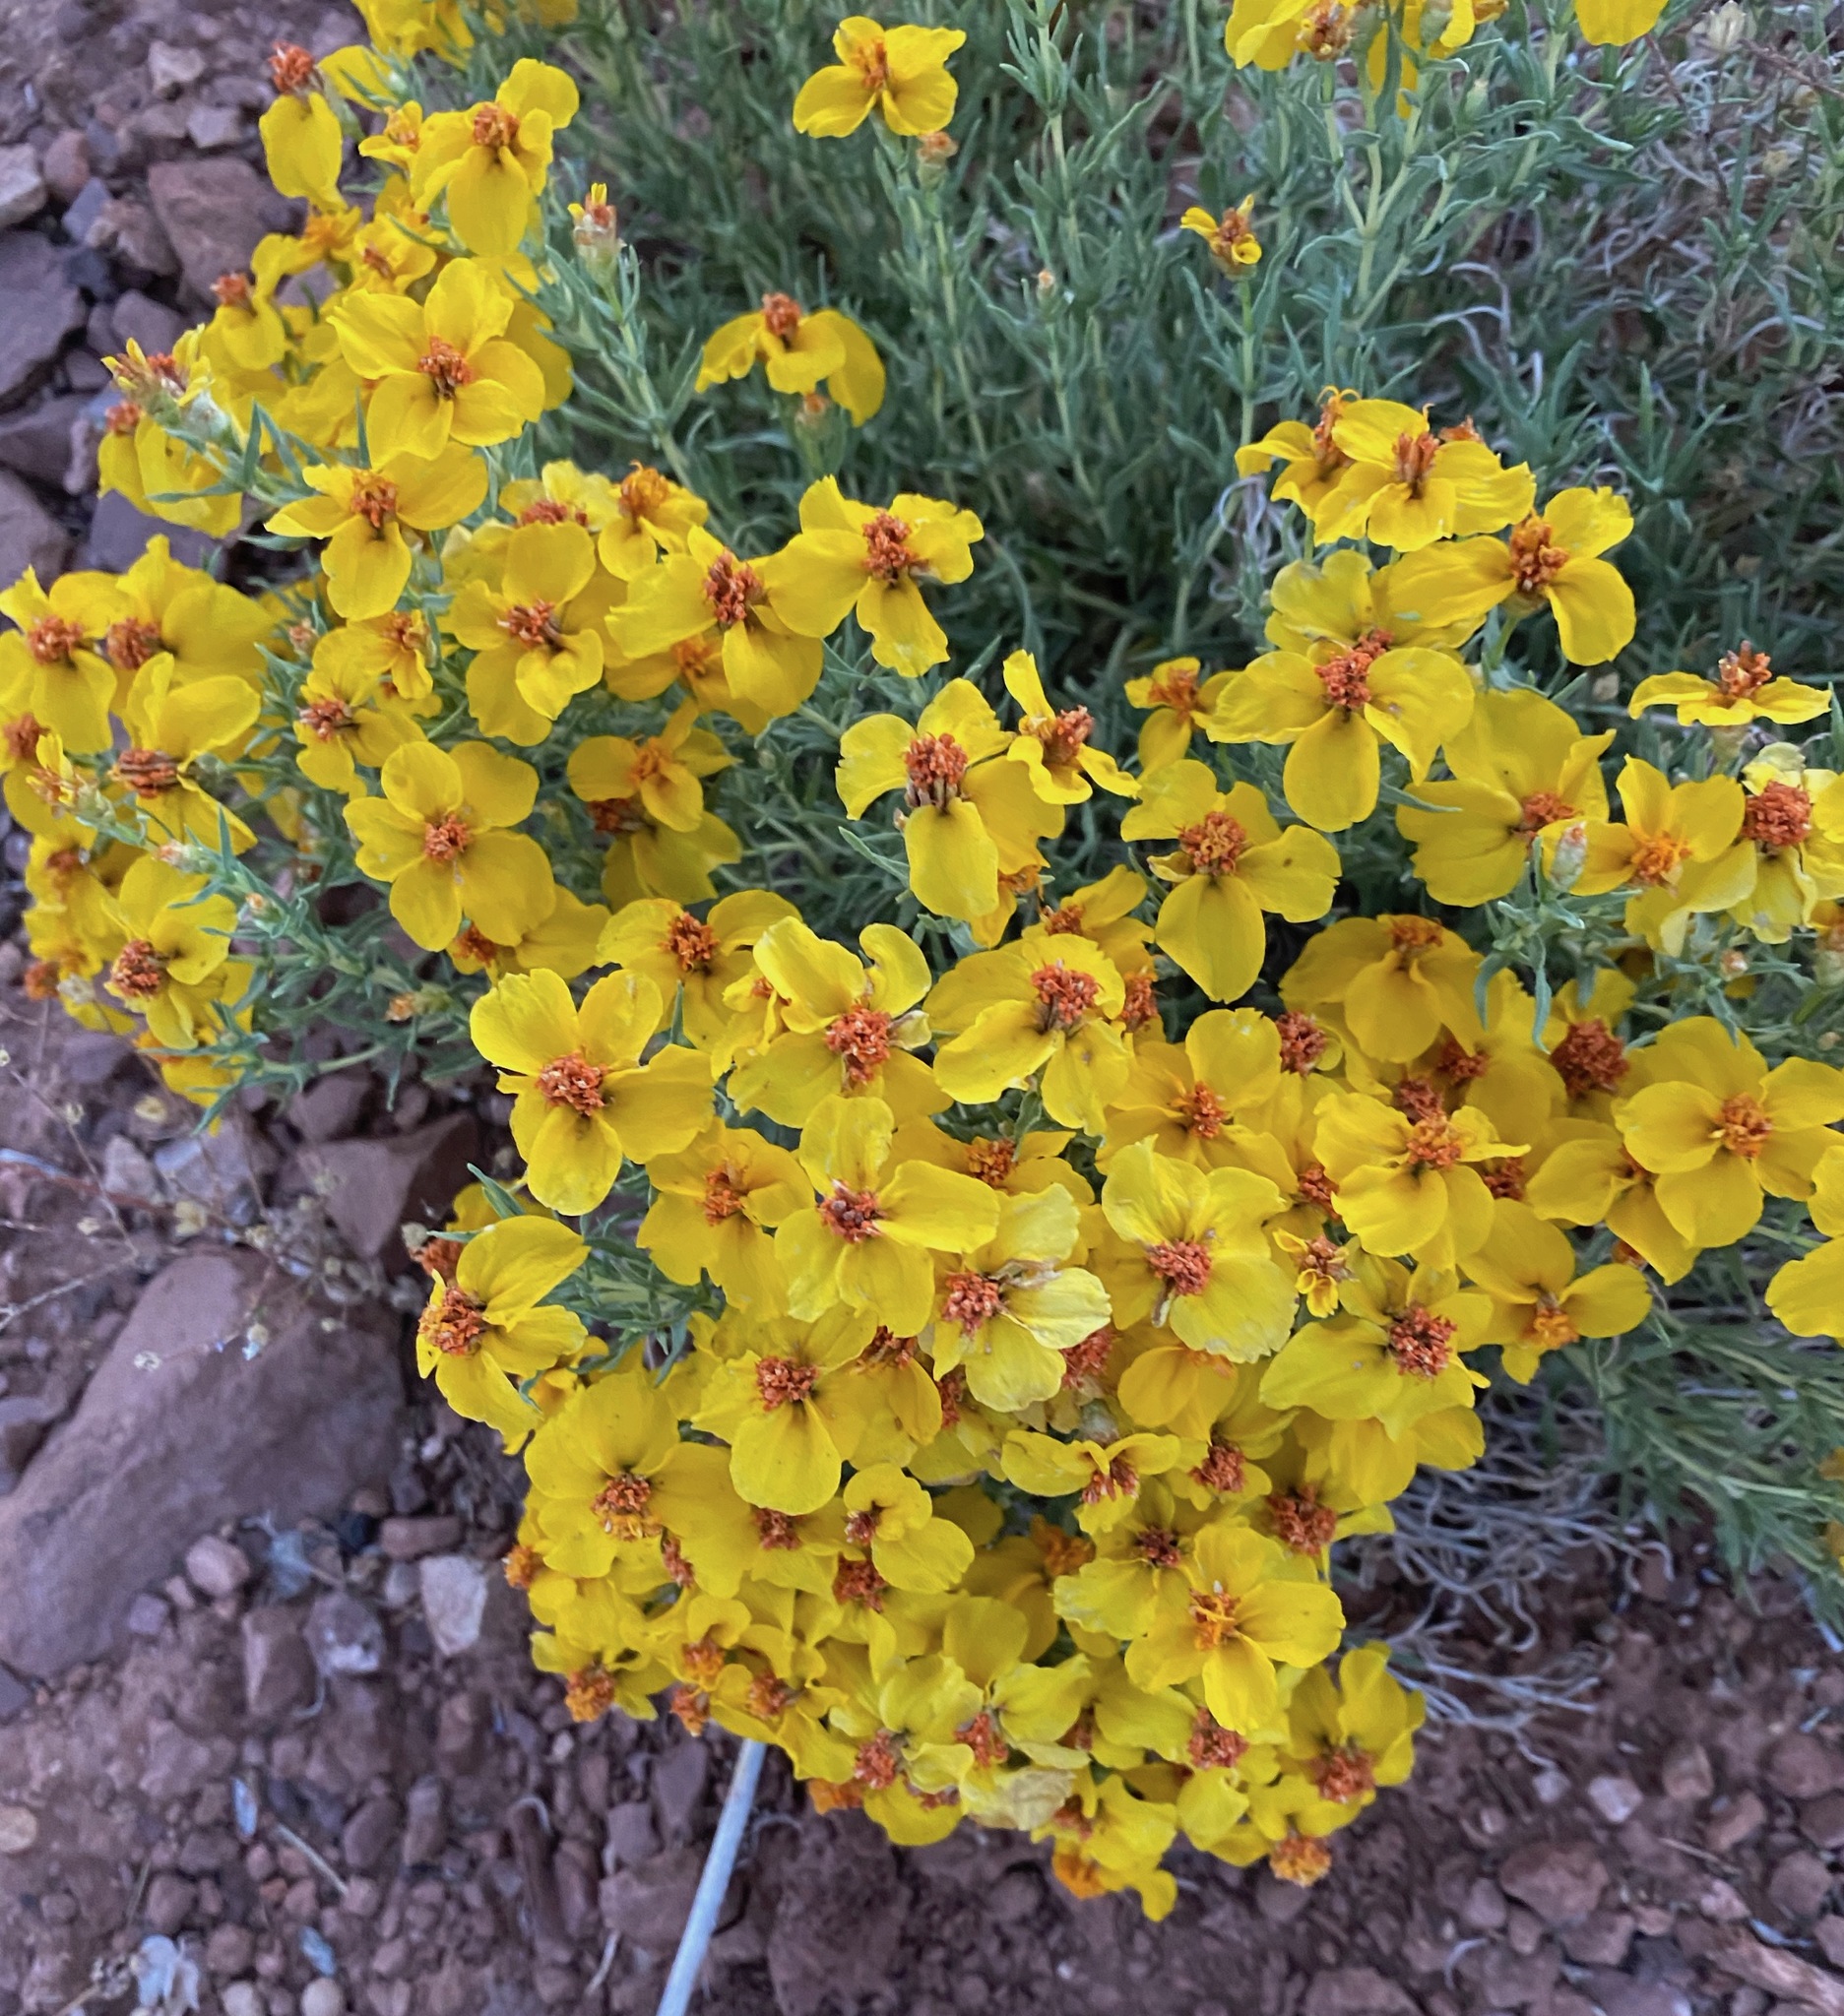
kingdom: Plantae
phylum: Tracheophyta
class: Magnoliopsida
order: Asterales
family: Asteraceae
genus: Zinnia
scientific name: Zinnia grandiflora
